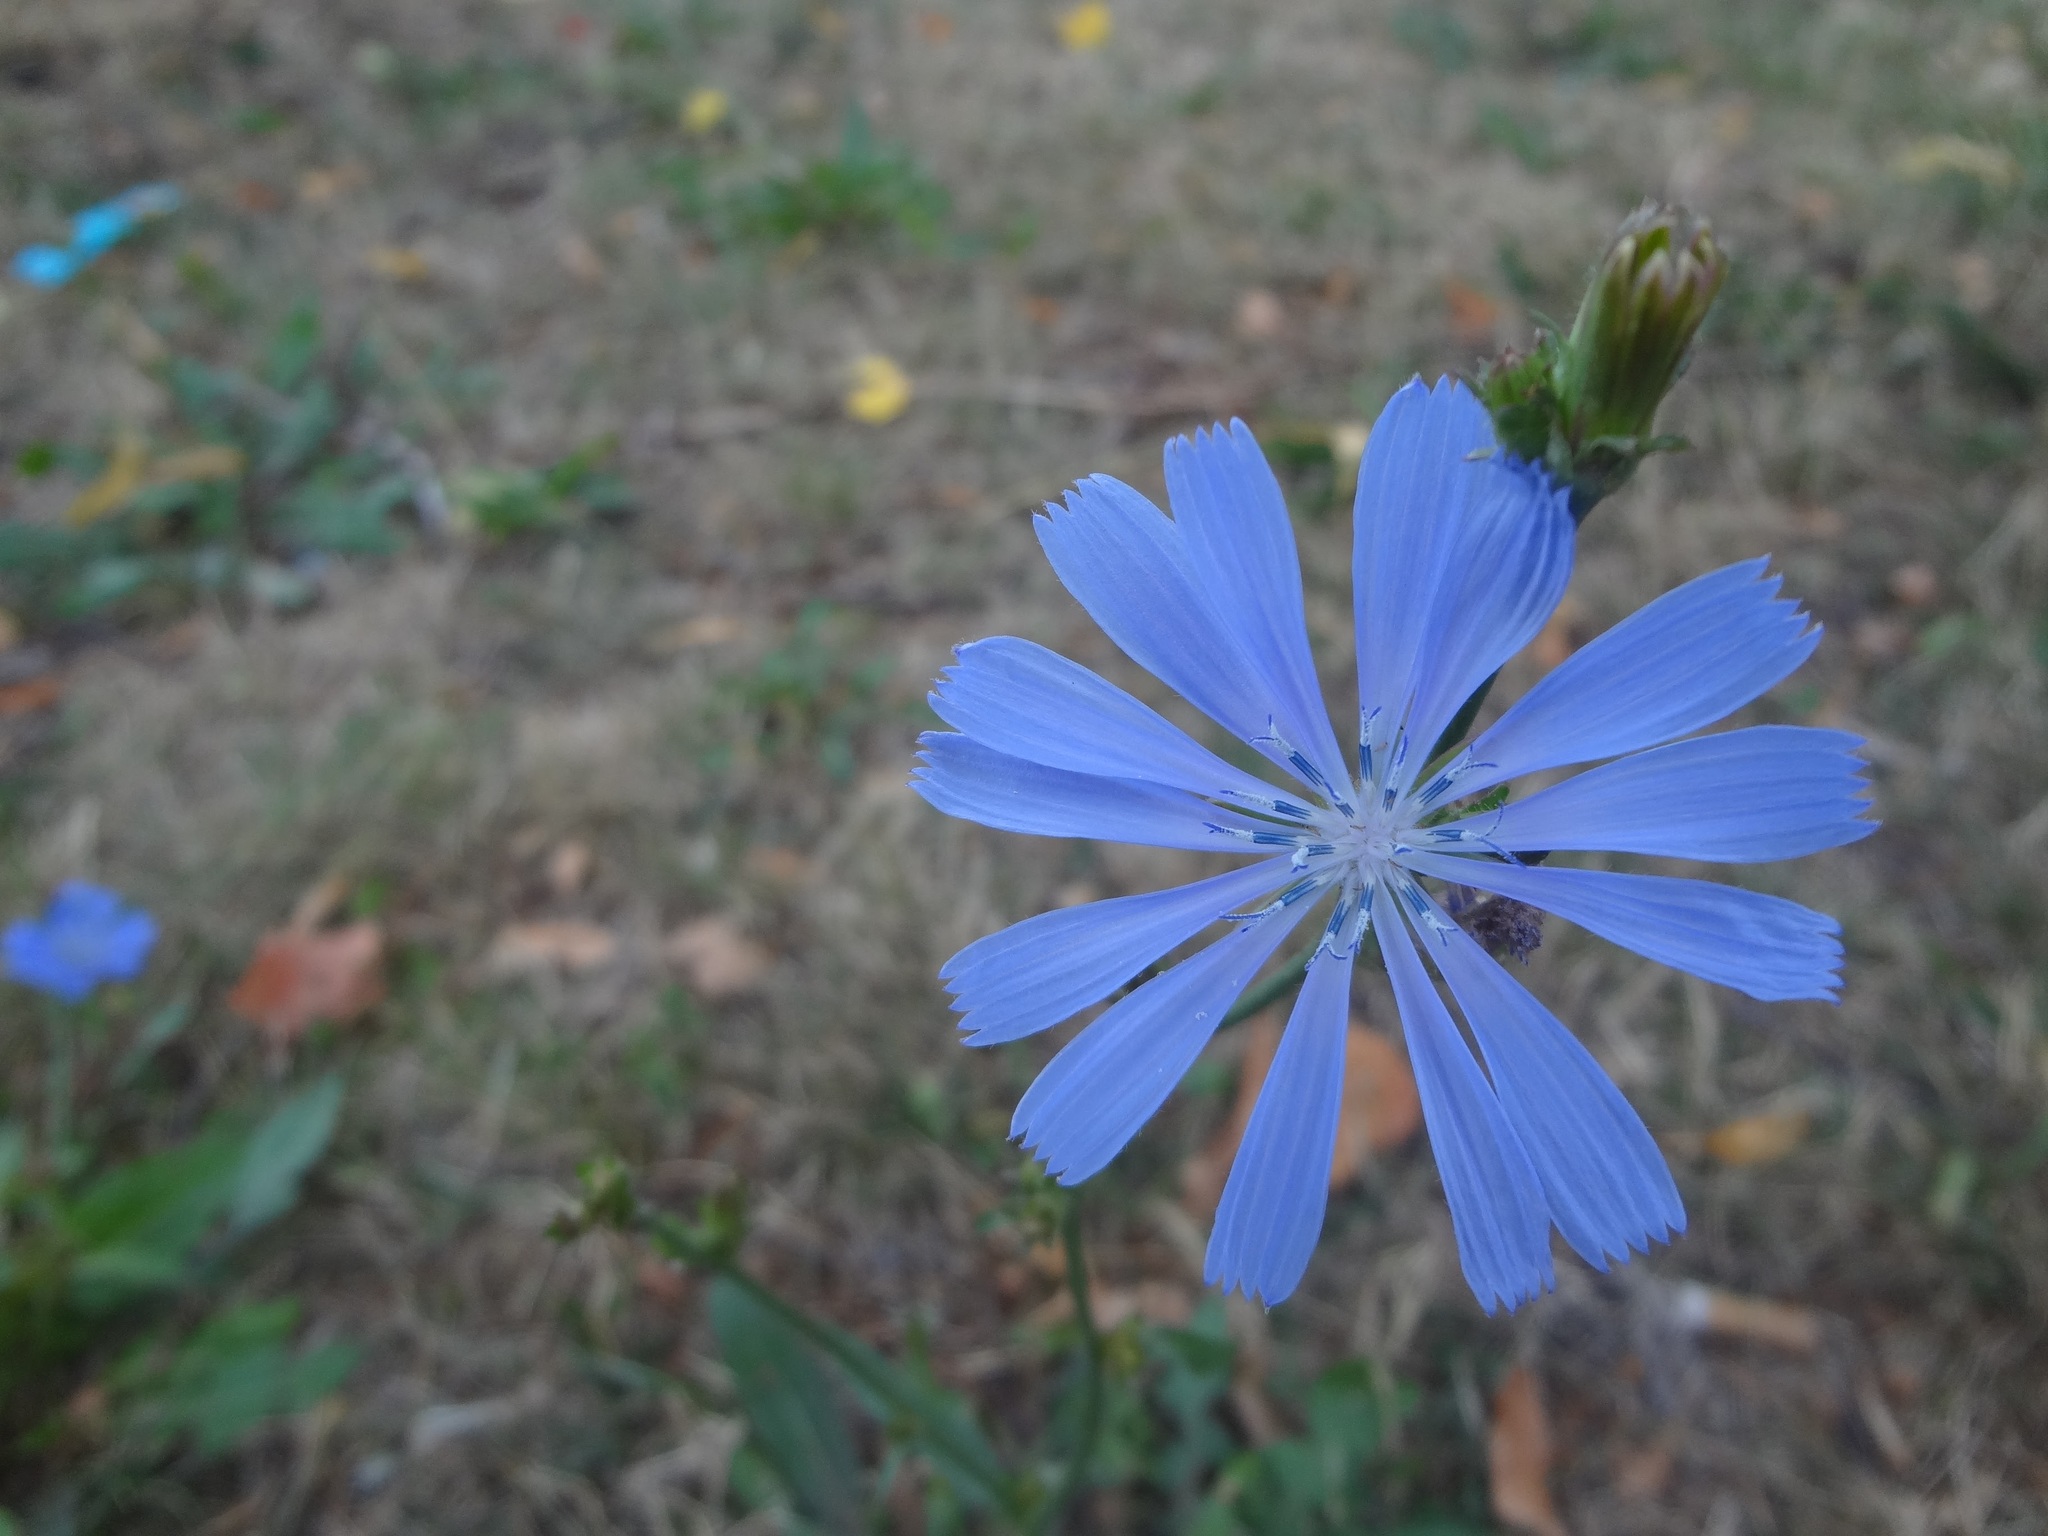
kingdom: Plantae
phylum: Tracheophyta
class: Magnoliopsida
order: Asterales
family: Asteraceae
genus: Cichorium
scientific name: Cichorium intybus
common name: Chicory
